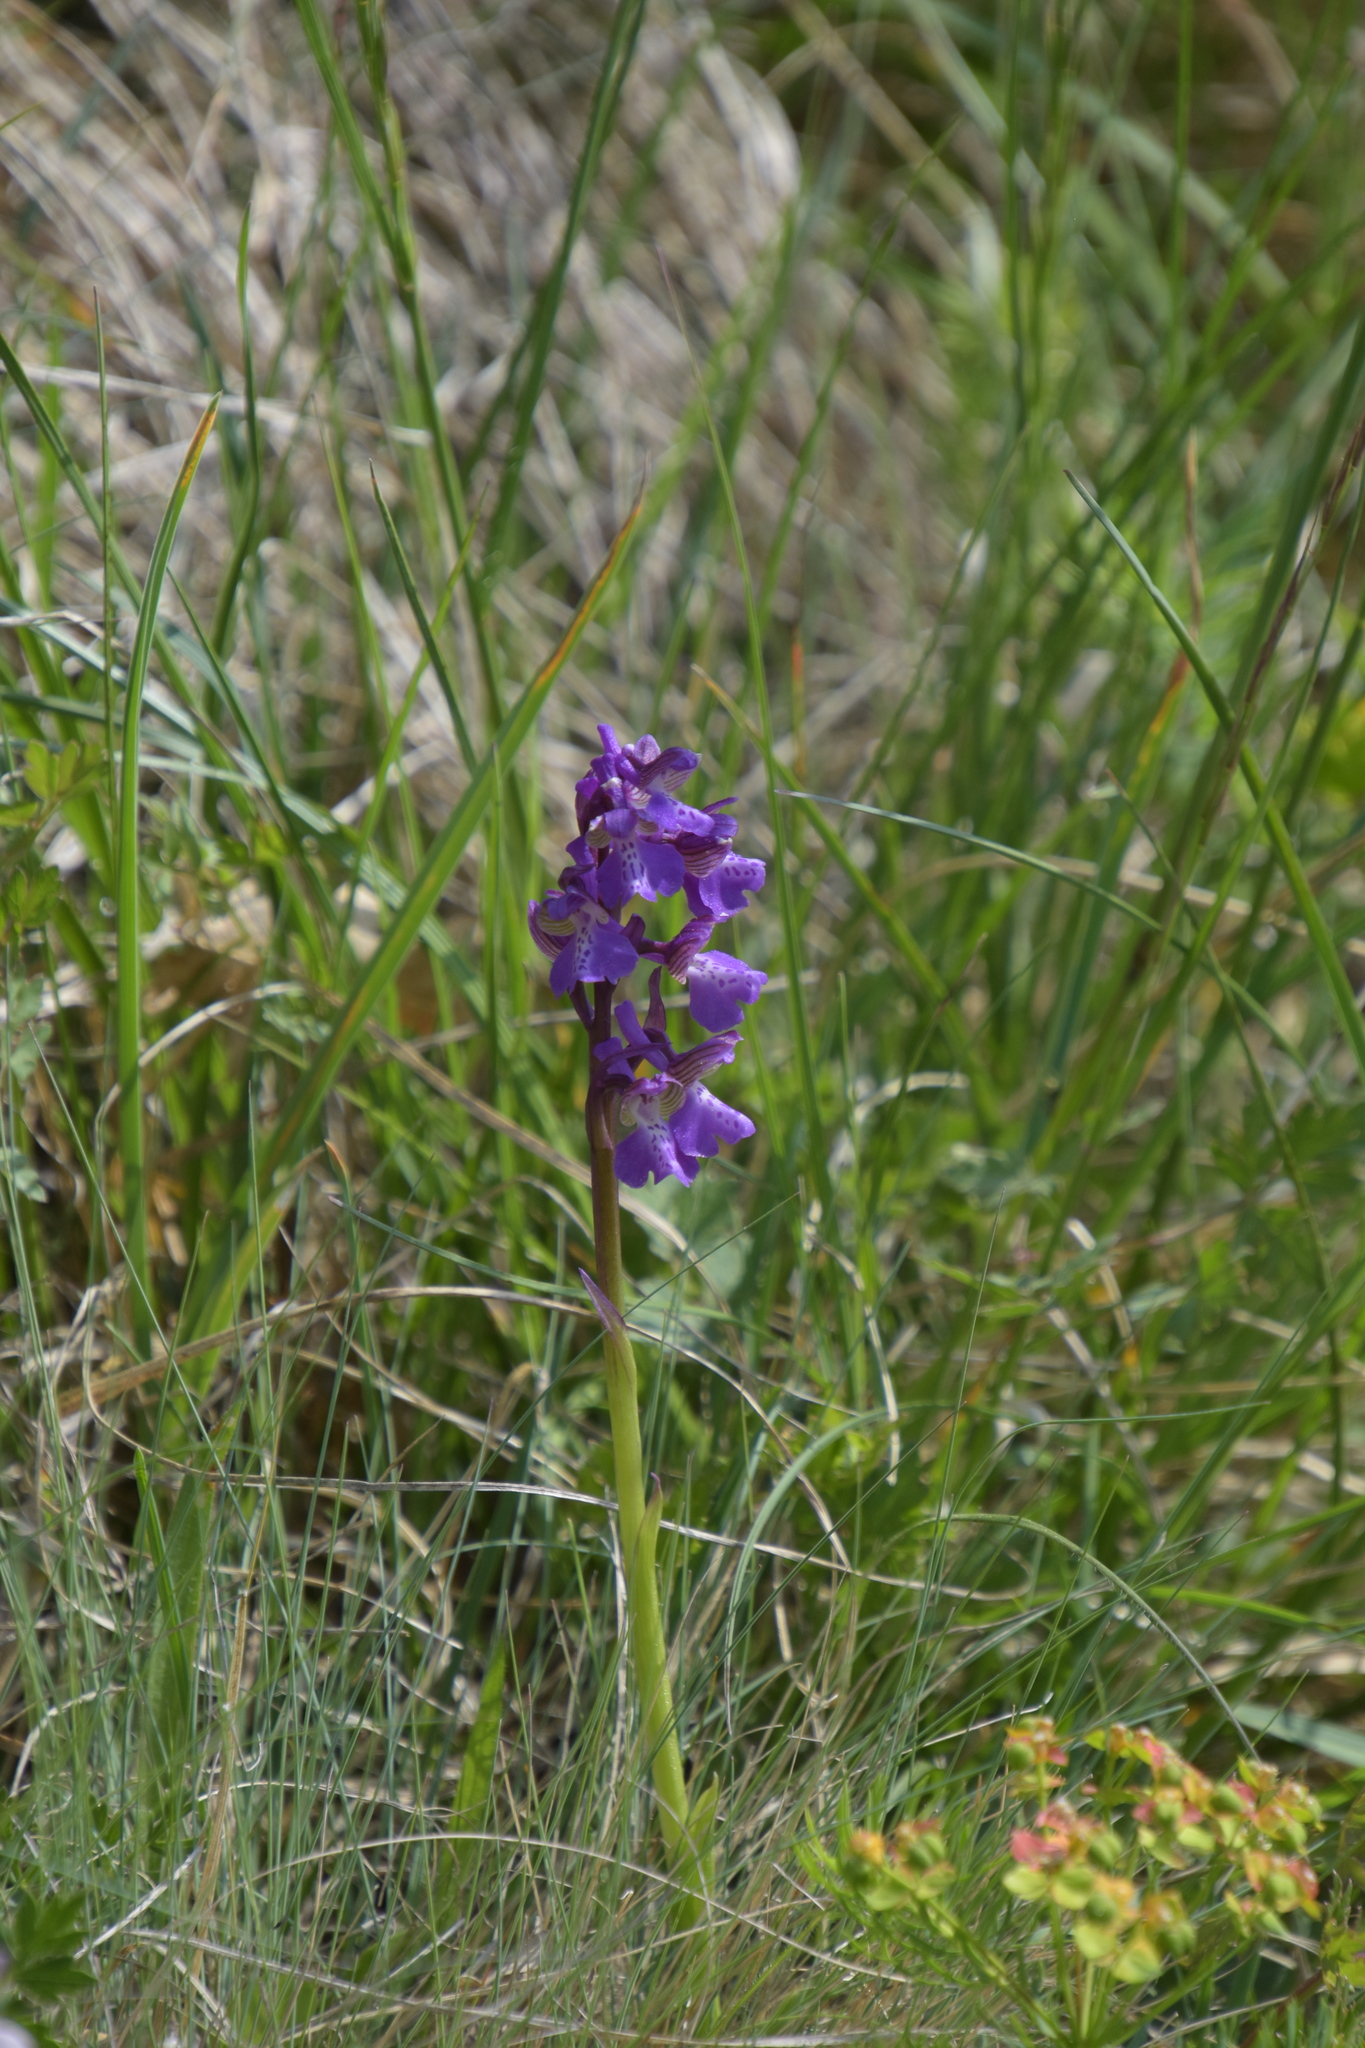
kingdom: Plantae
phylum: Tracheophyta
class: Liliopsida
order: Asparagales
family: Orchidaceae
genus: Anacamptis
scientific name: Anacamptis morio
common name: Green-winged orchid
